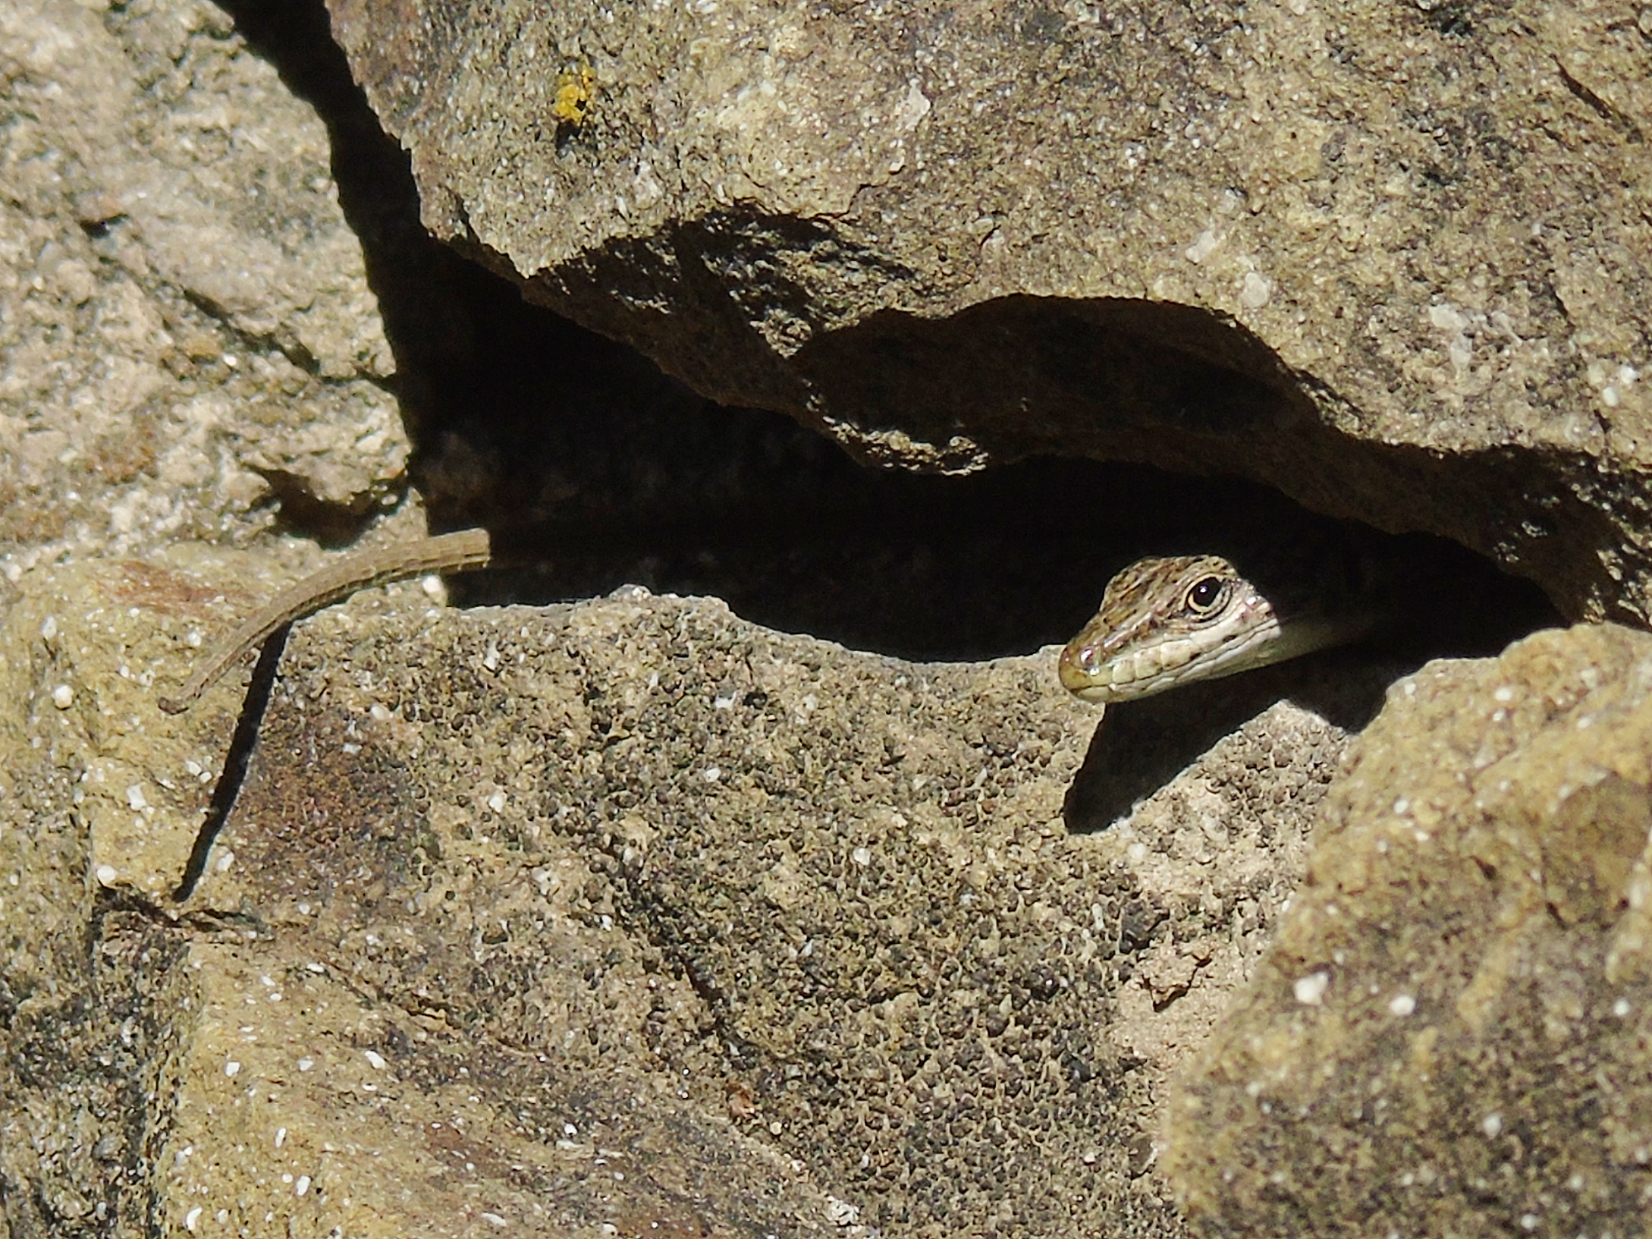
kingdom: Animalia
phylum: Chordata
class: Squamata
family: Lacertidae
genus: Darevskia
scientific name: Darevskia portschinskii
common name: River kura lizard
